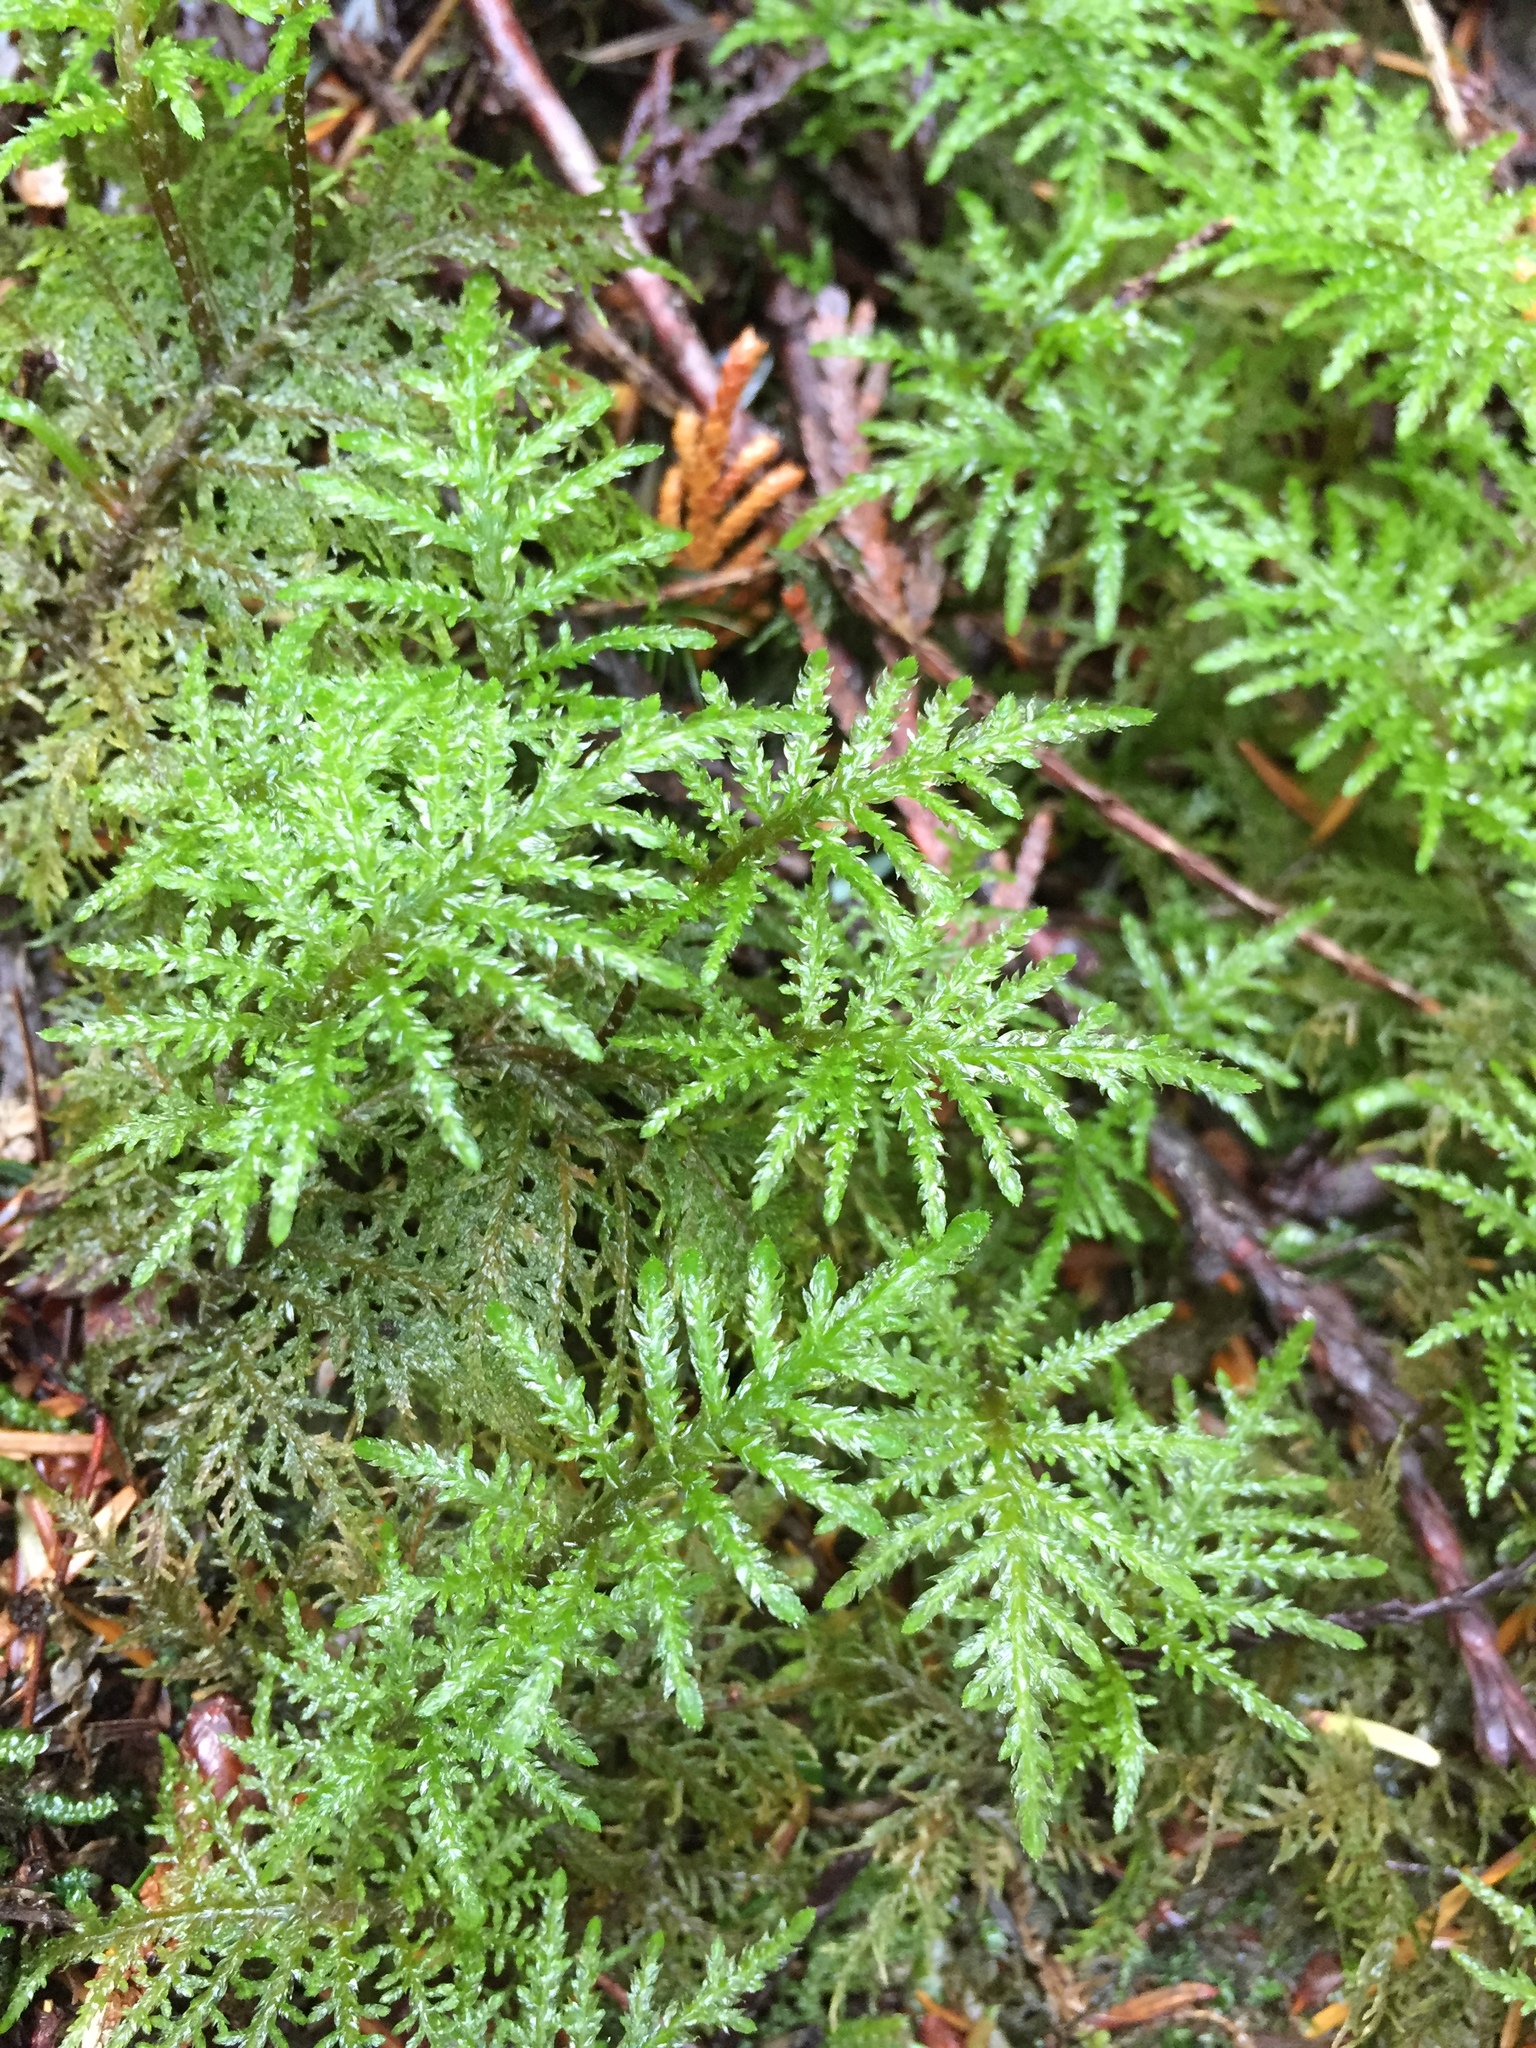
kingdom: Plantae
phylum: Bryophyta
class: Bryopsida
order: Hypnales
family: Hylocomiaceae
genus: Hylocomium
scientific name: Hylocomium splendens
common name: Stairstep moss
